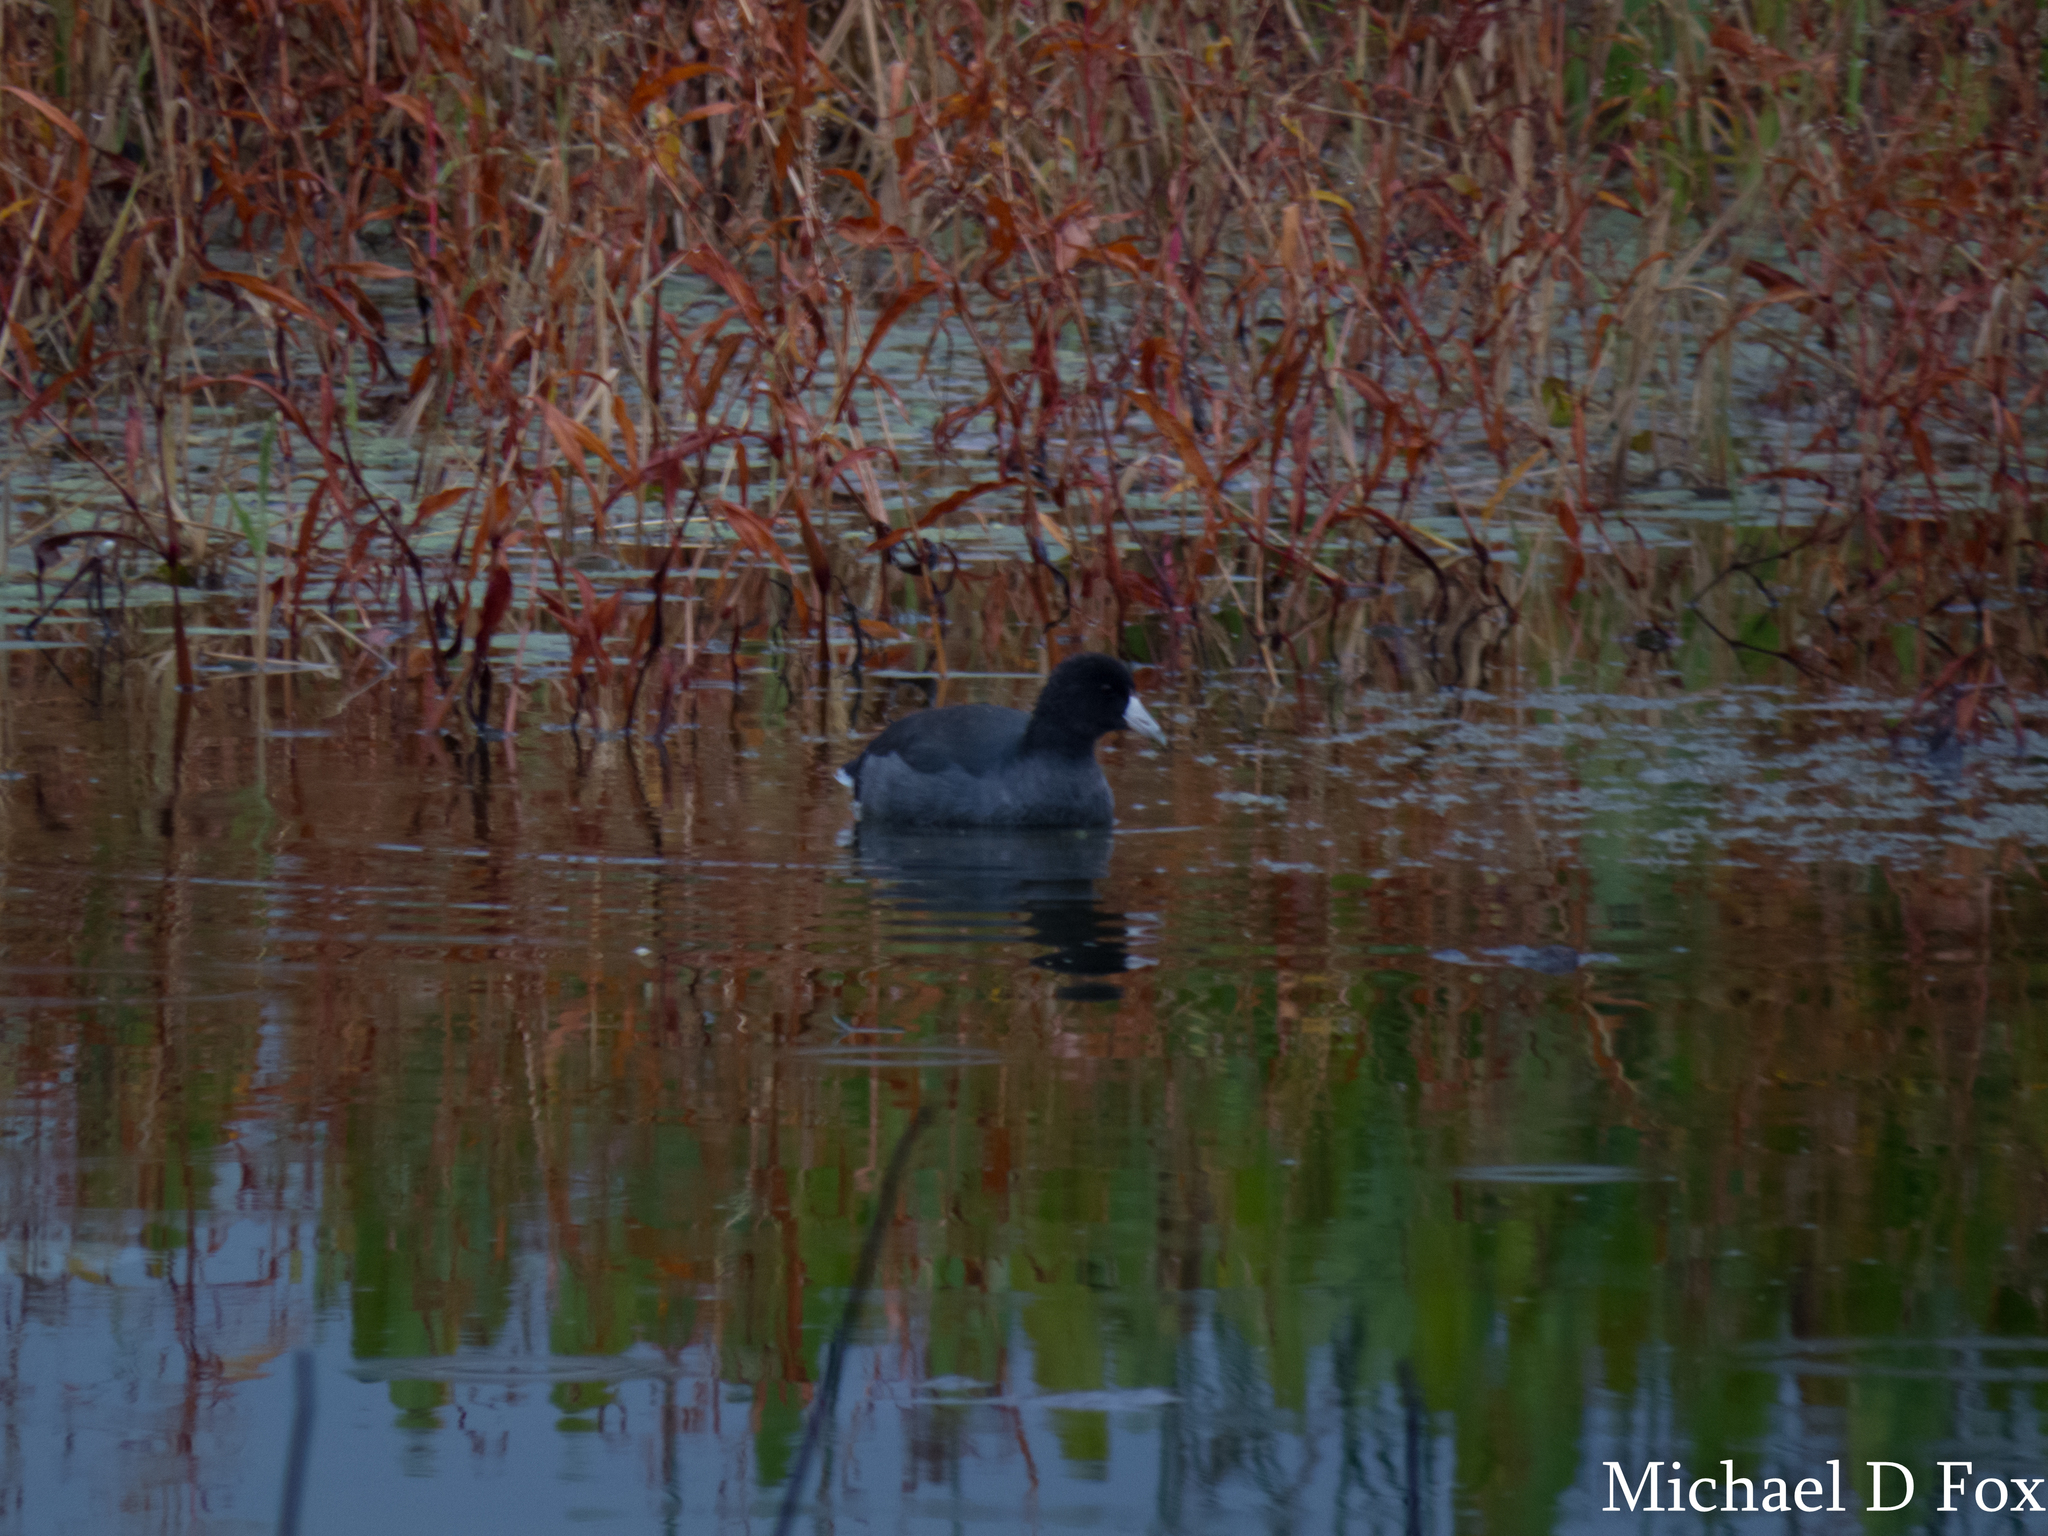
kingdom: Animalia
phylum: Chordata
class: Aves
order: Gruiformes
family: Rallidae
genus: Fulica
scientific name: Fulica americana
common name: American coot
